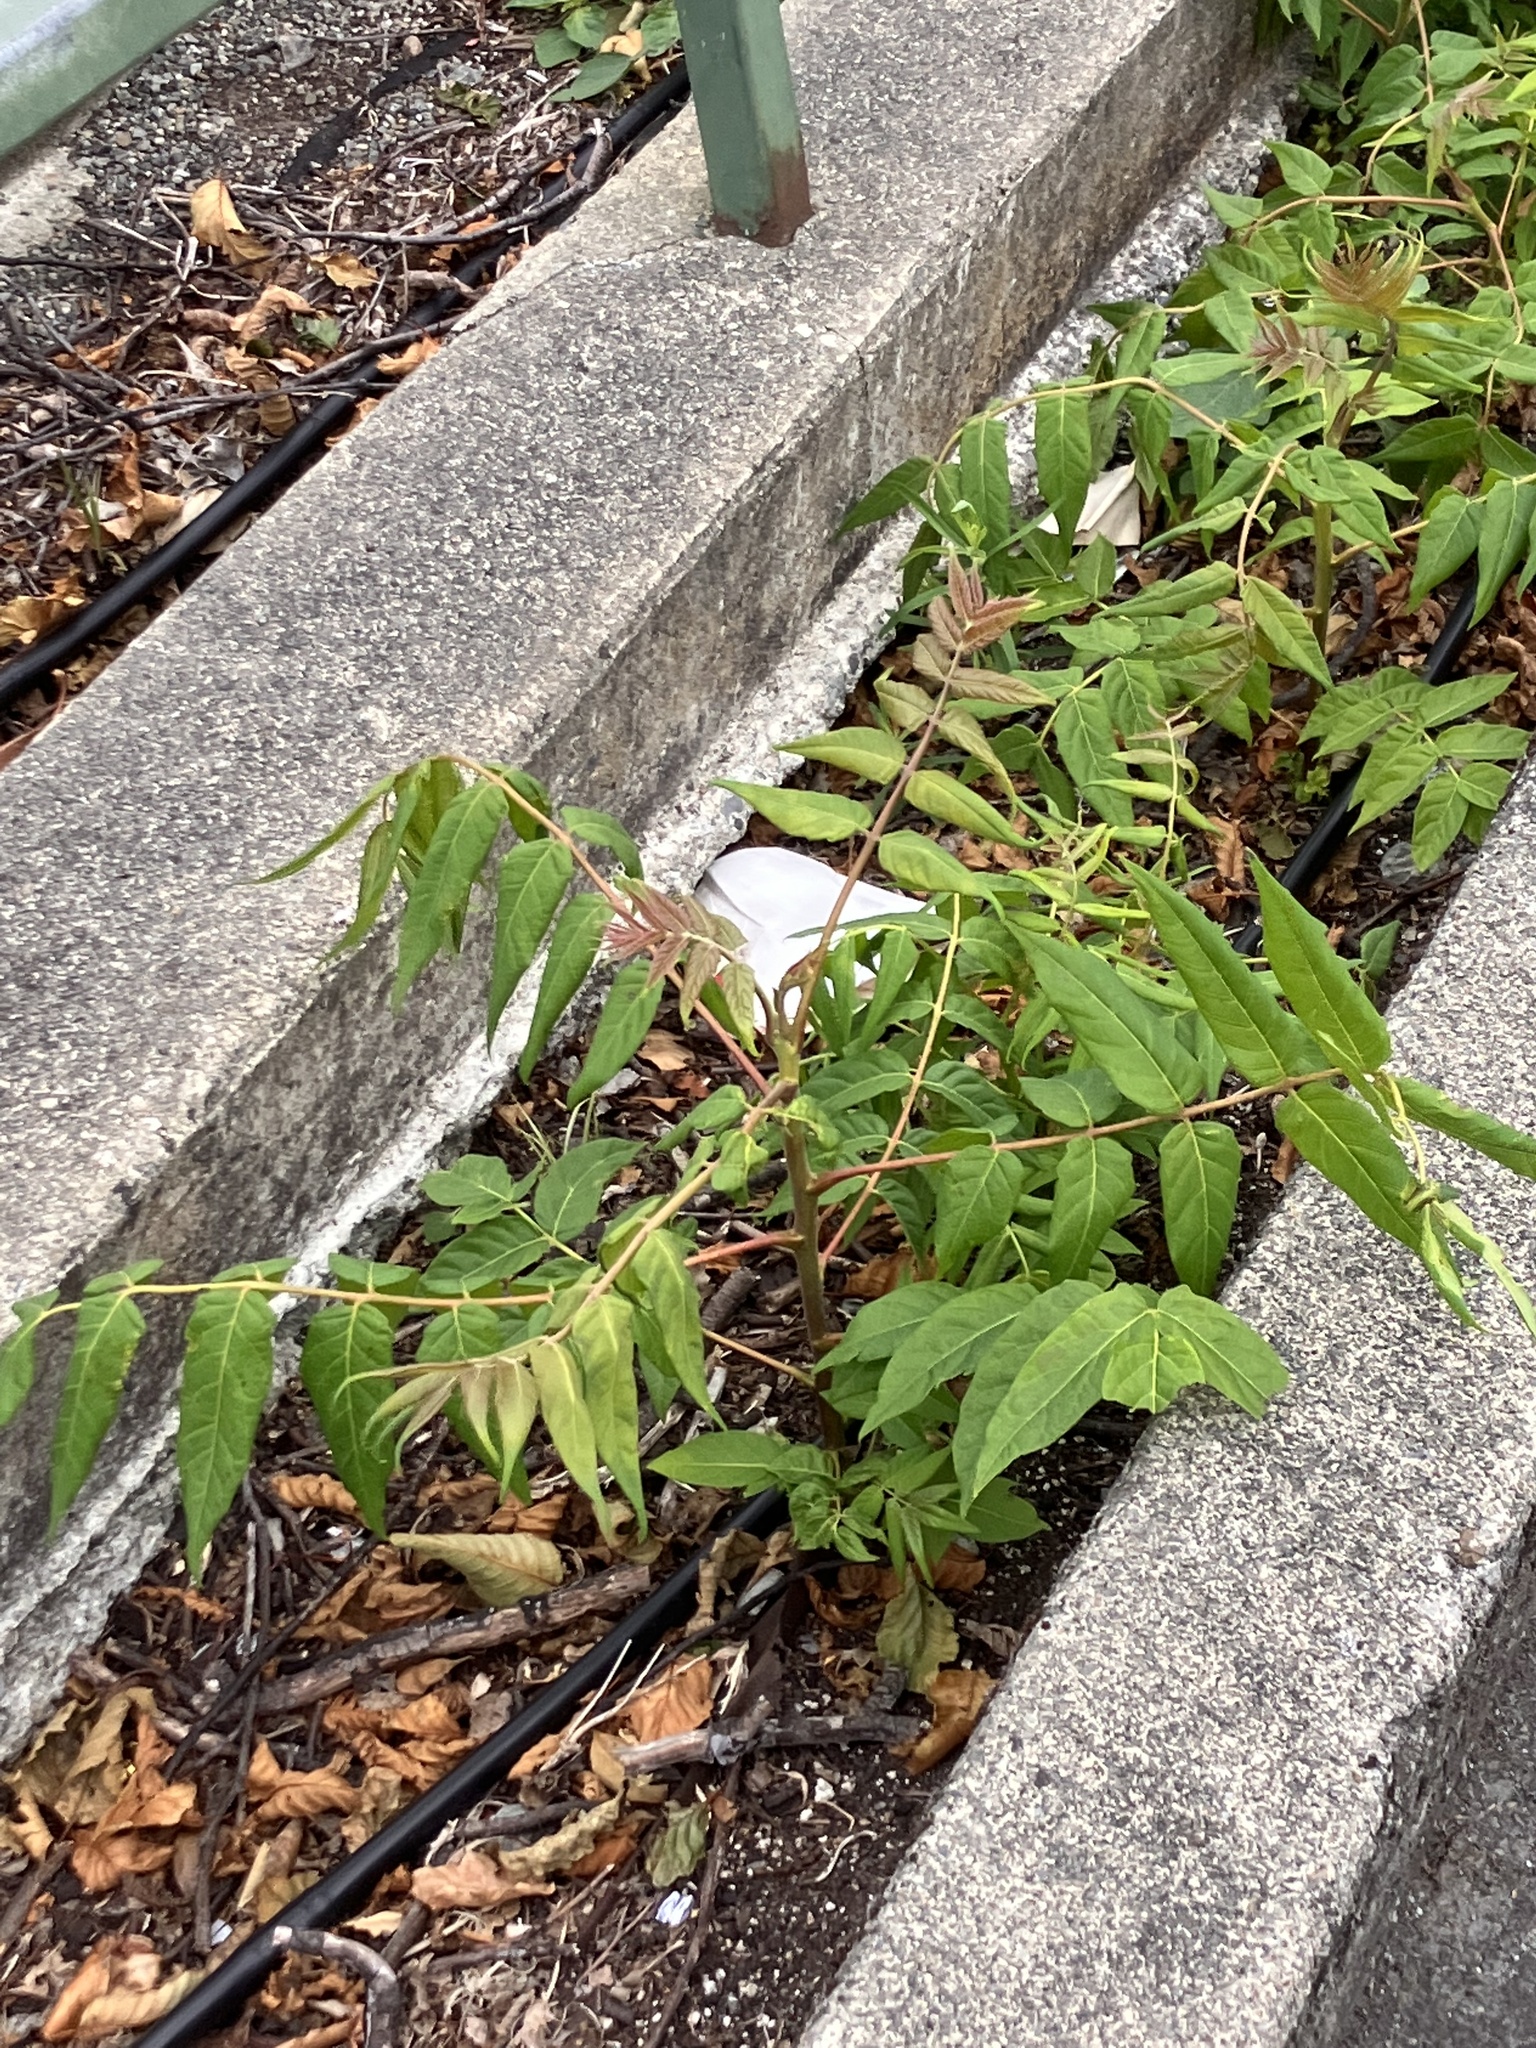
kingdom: Plantae
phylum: Tracheophyta
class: Magnoliopsida
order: Sapindales
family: Simaroubaceae
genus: Ailanthus
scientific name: Ailanthus altissima
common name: Tree-of-heaven
